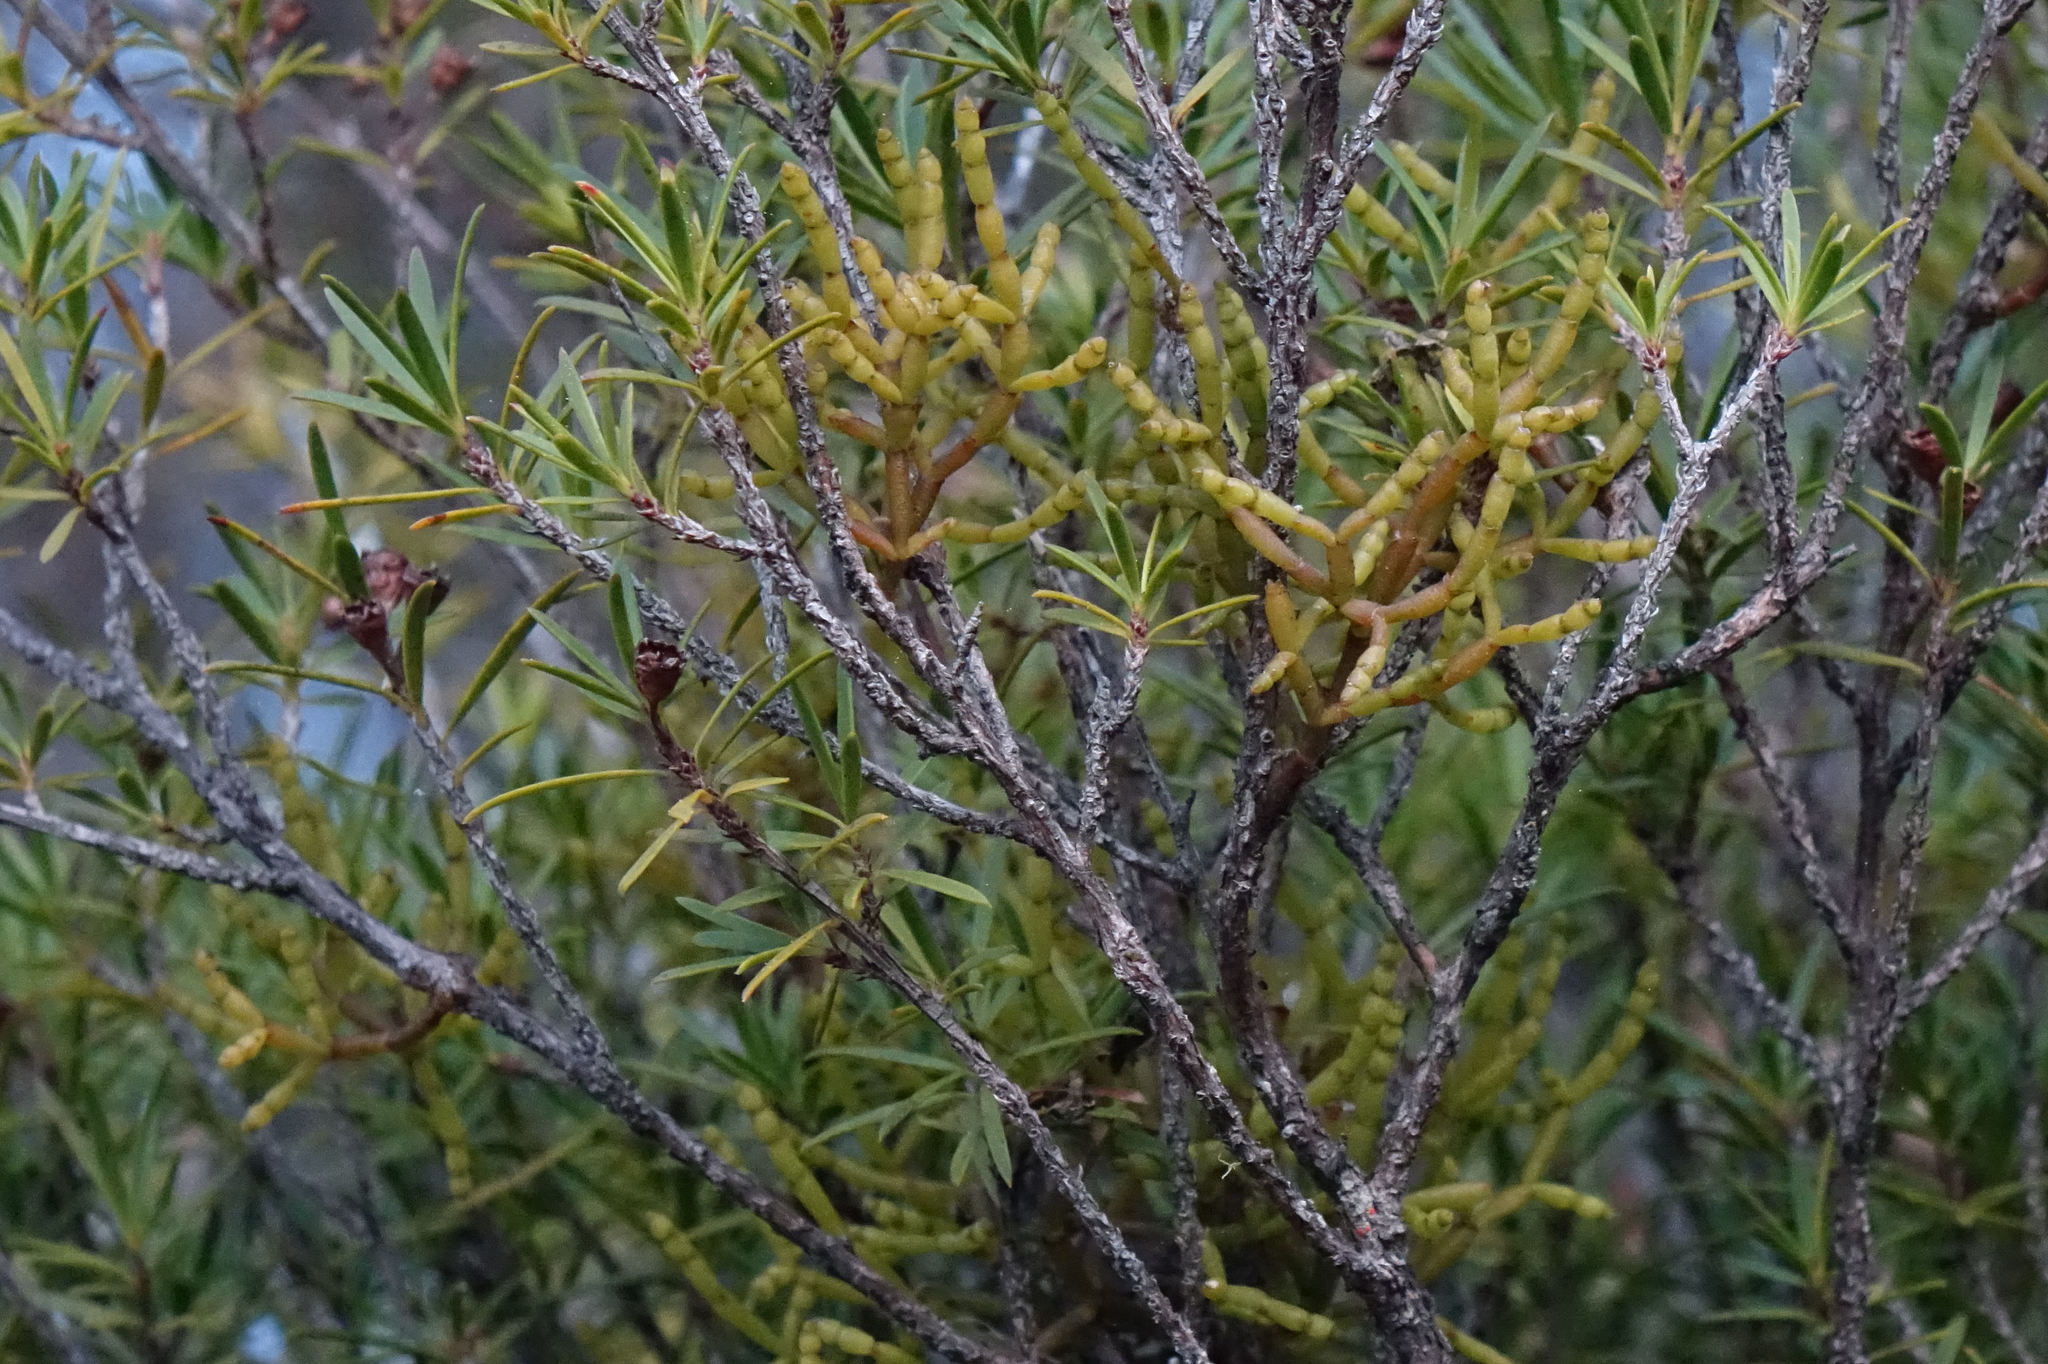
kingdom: Plantae
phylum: Tracheophyta
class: Magnoliopsida
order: Santalales
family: Viscaceae
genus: Korthalsella
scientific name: Korthalsella salicornioides
